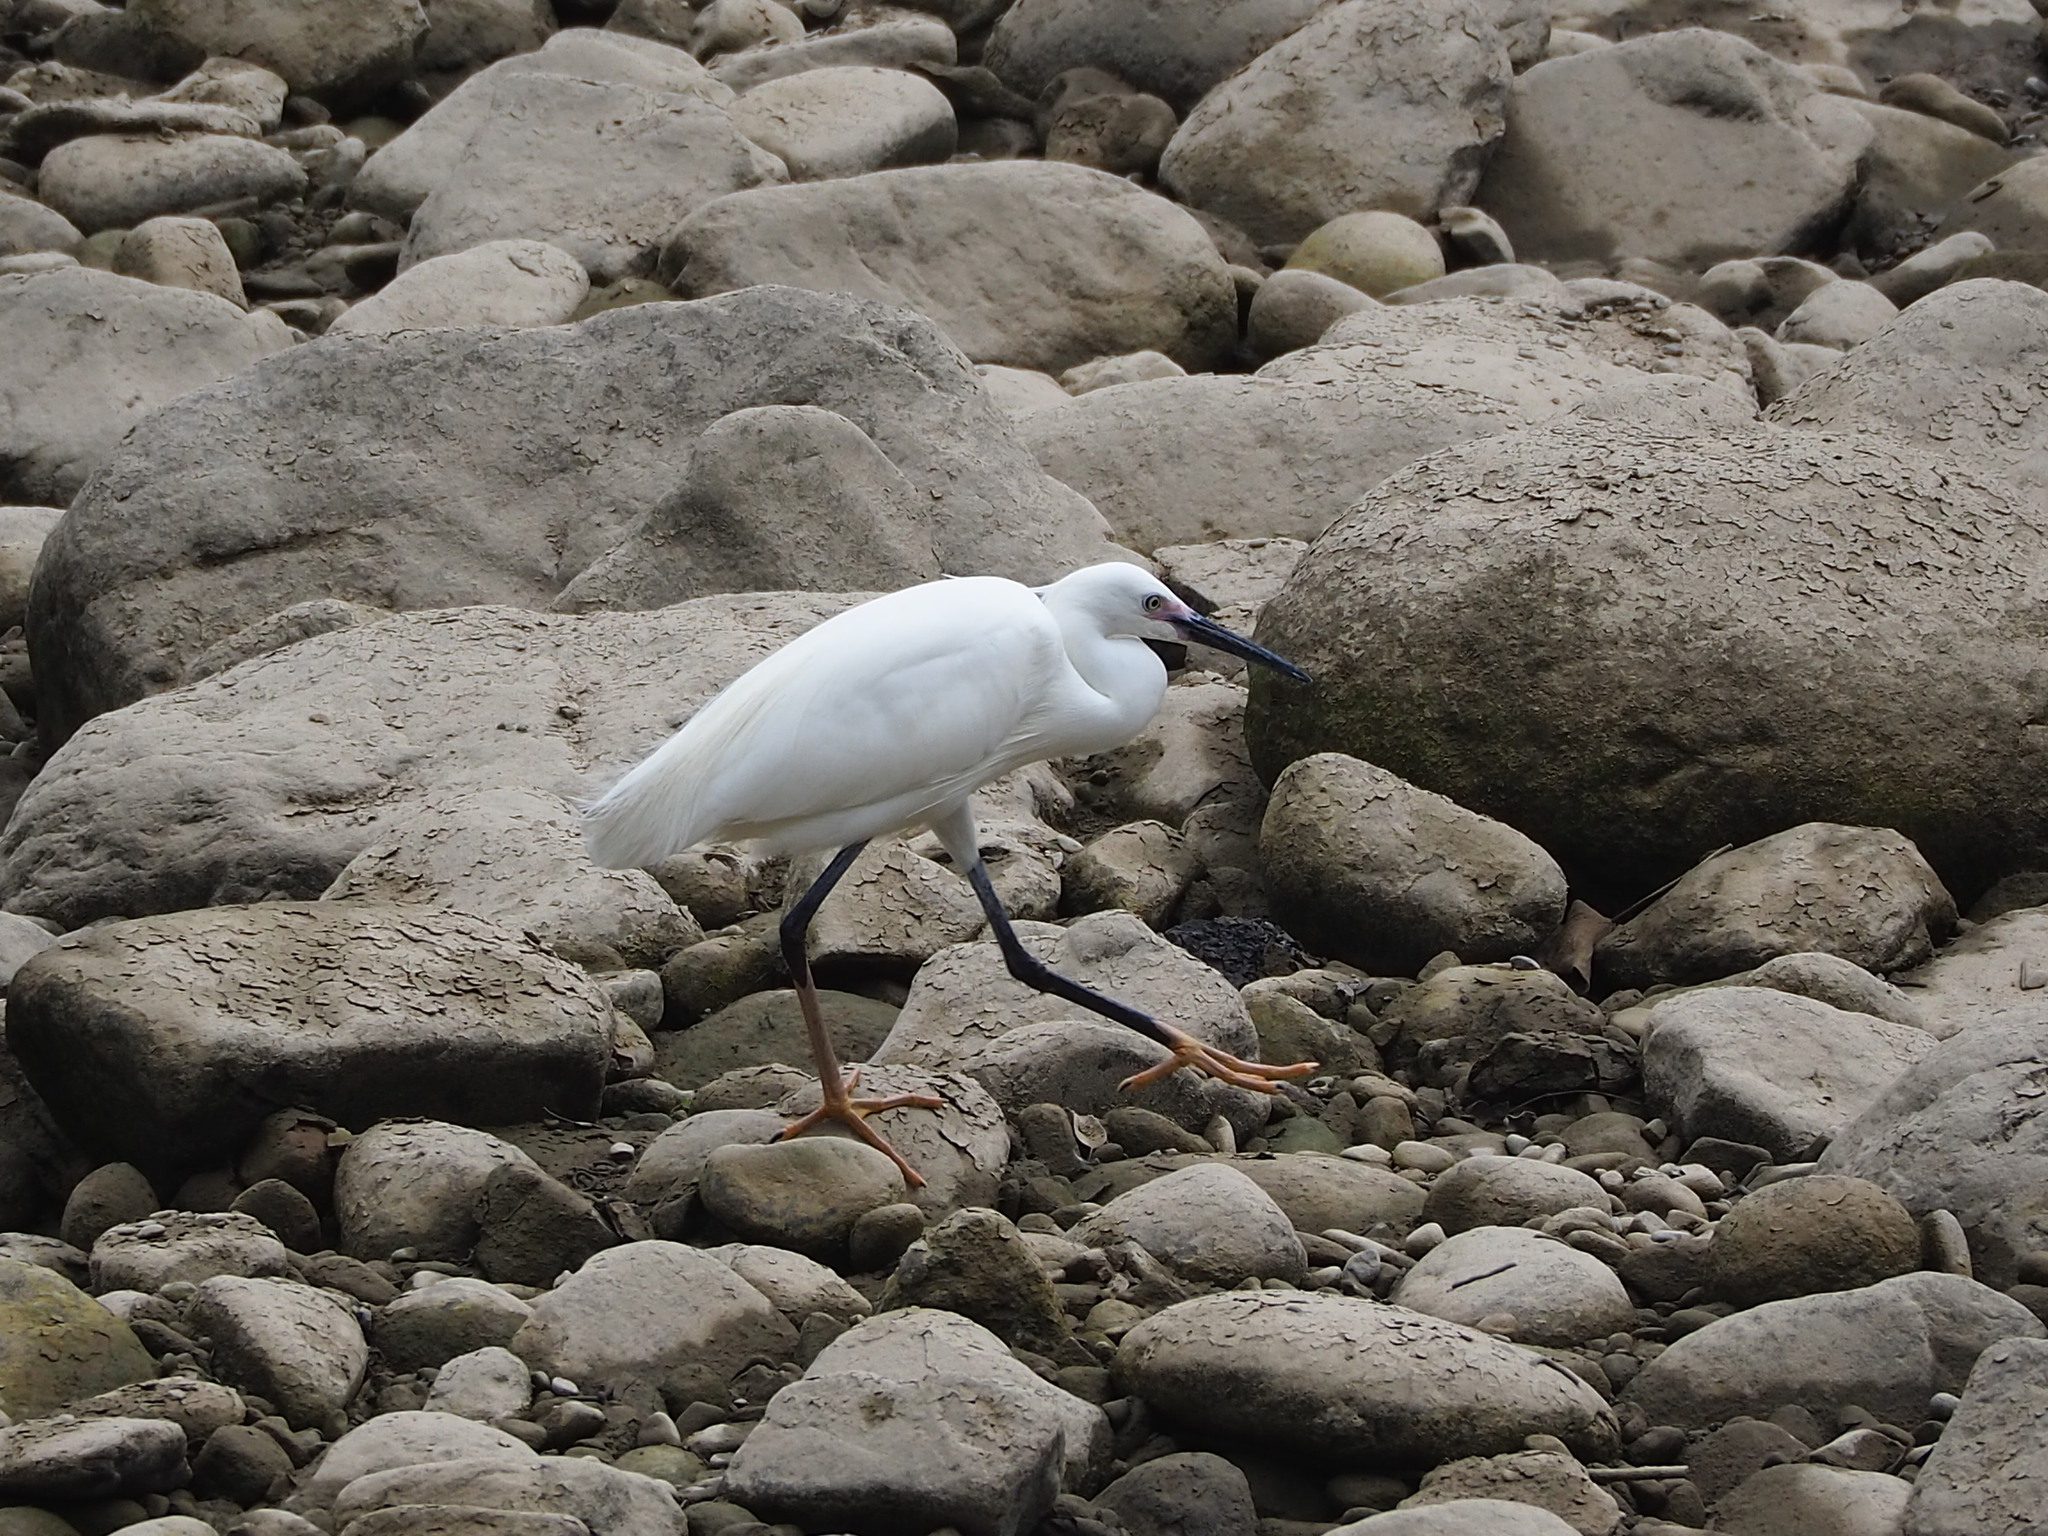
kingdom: Animalia
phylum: Chordata
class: Aves
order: Pelecaniformes
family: Ardeidae
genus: Egretta
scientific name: Egretta garzetta
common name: Little egret
